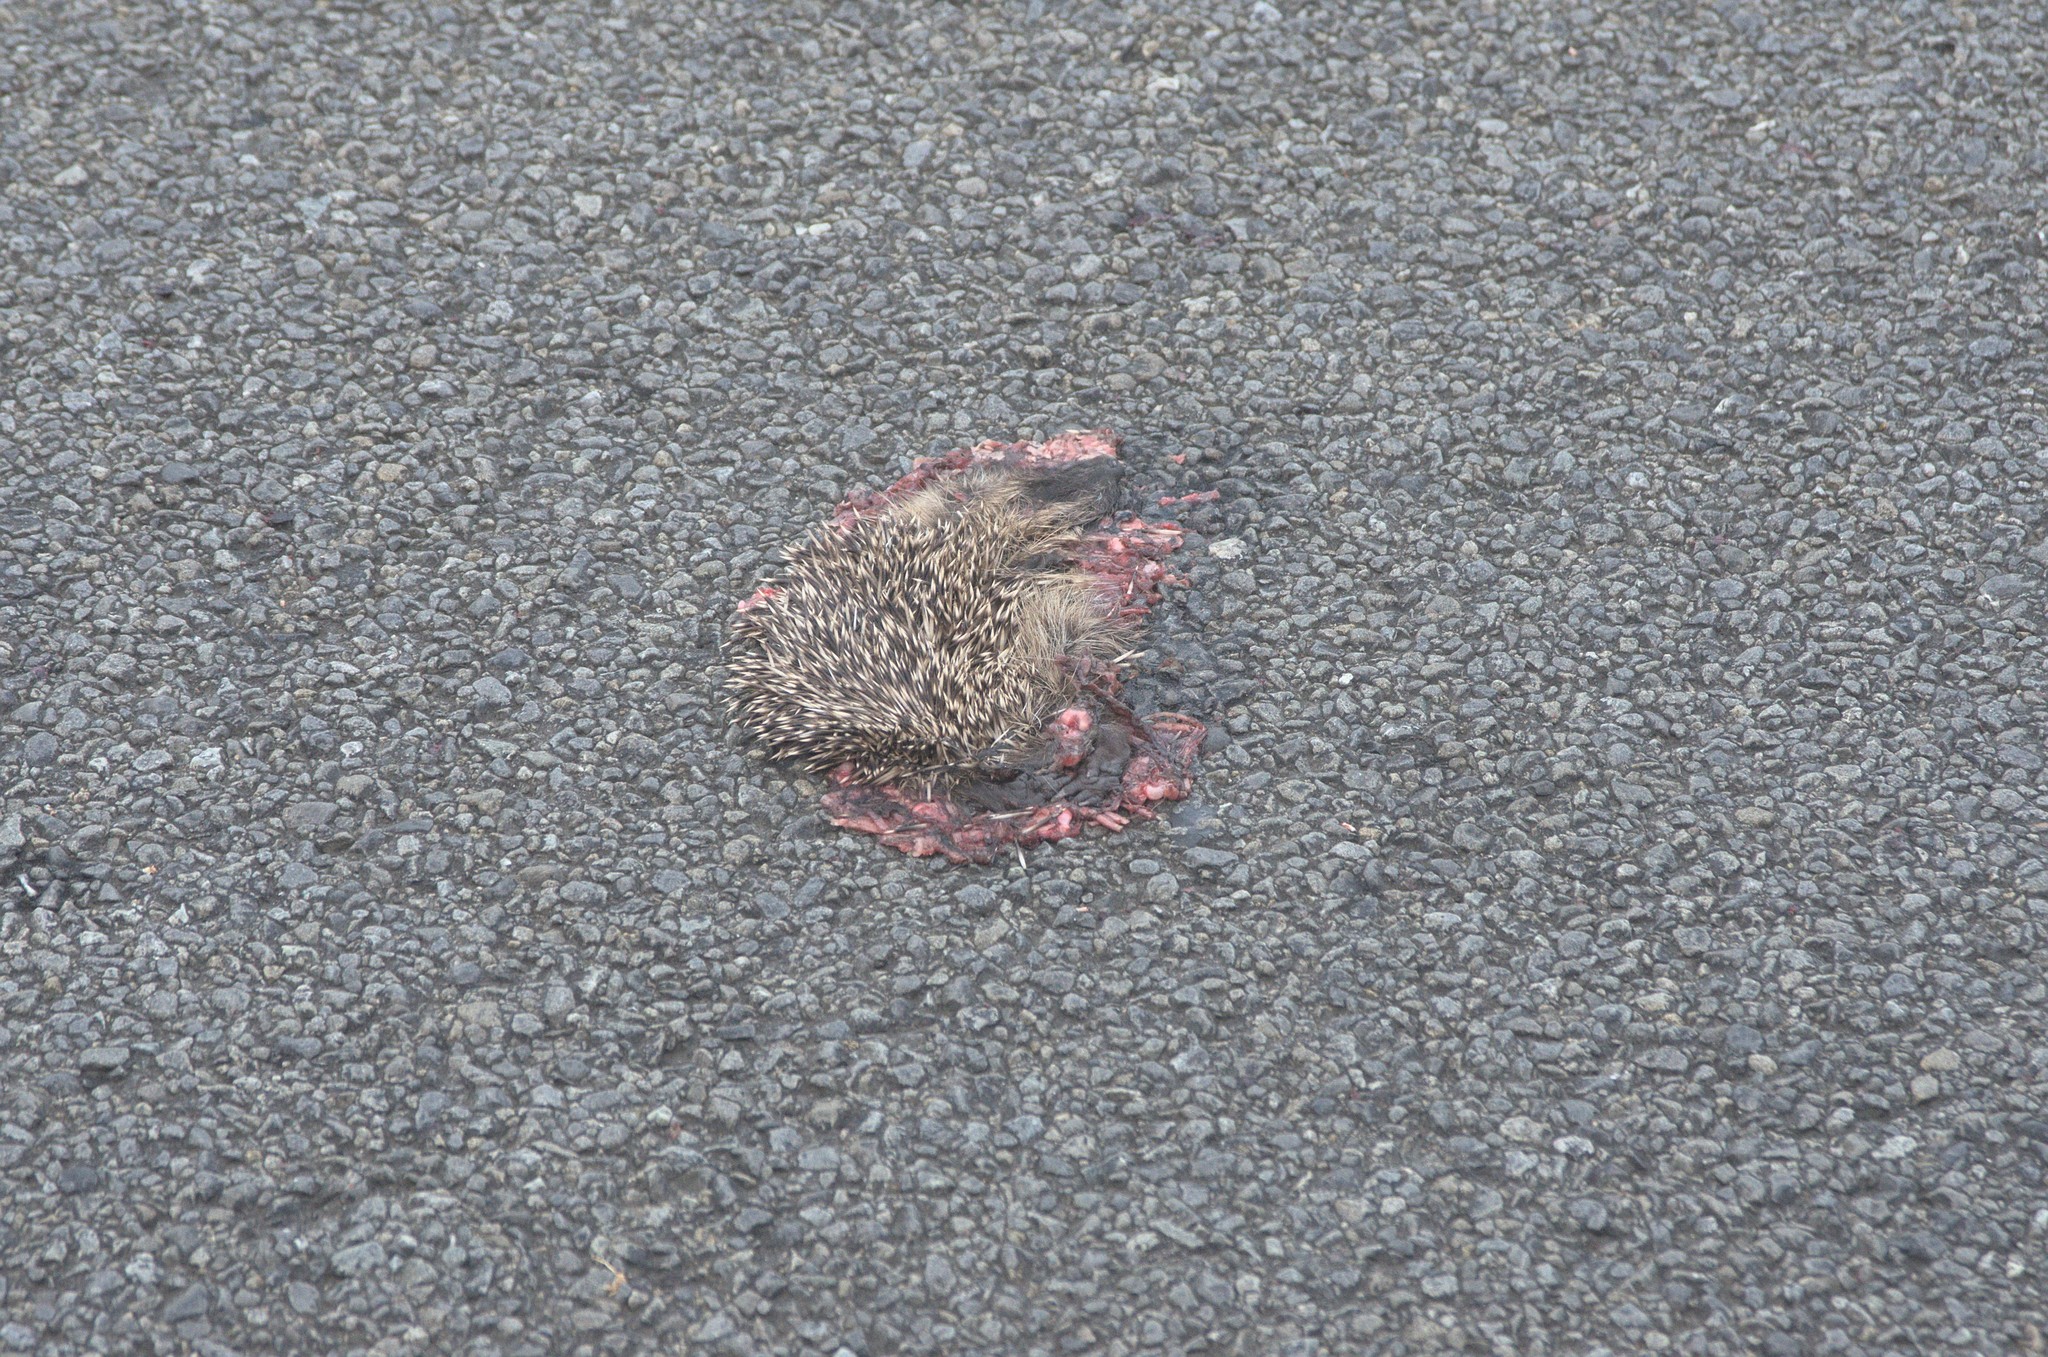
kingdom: Animalia
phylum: Chordata
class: Mammalia
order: Erinaceomorpha
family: Erinaceidae
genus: Erinaceus
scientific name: Erinaceus europaeus
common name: West european hedgehog
